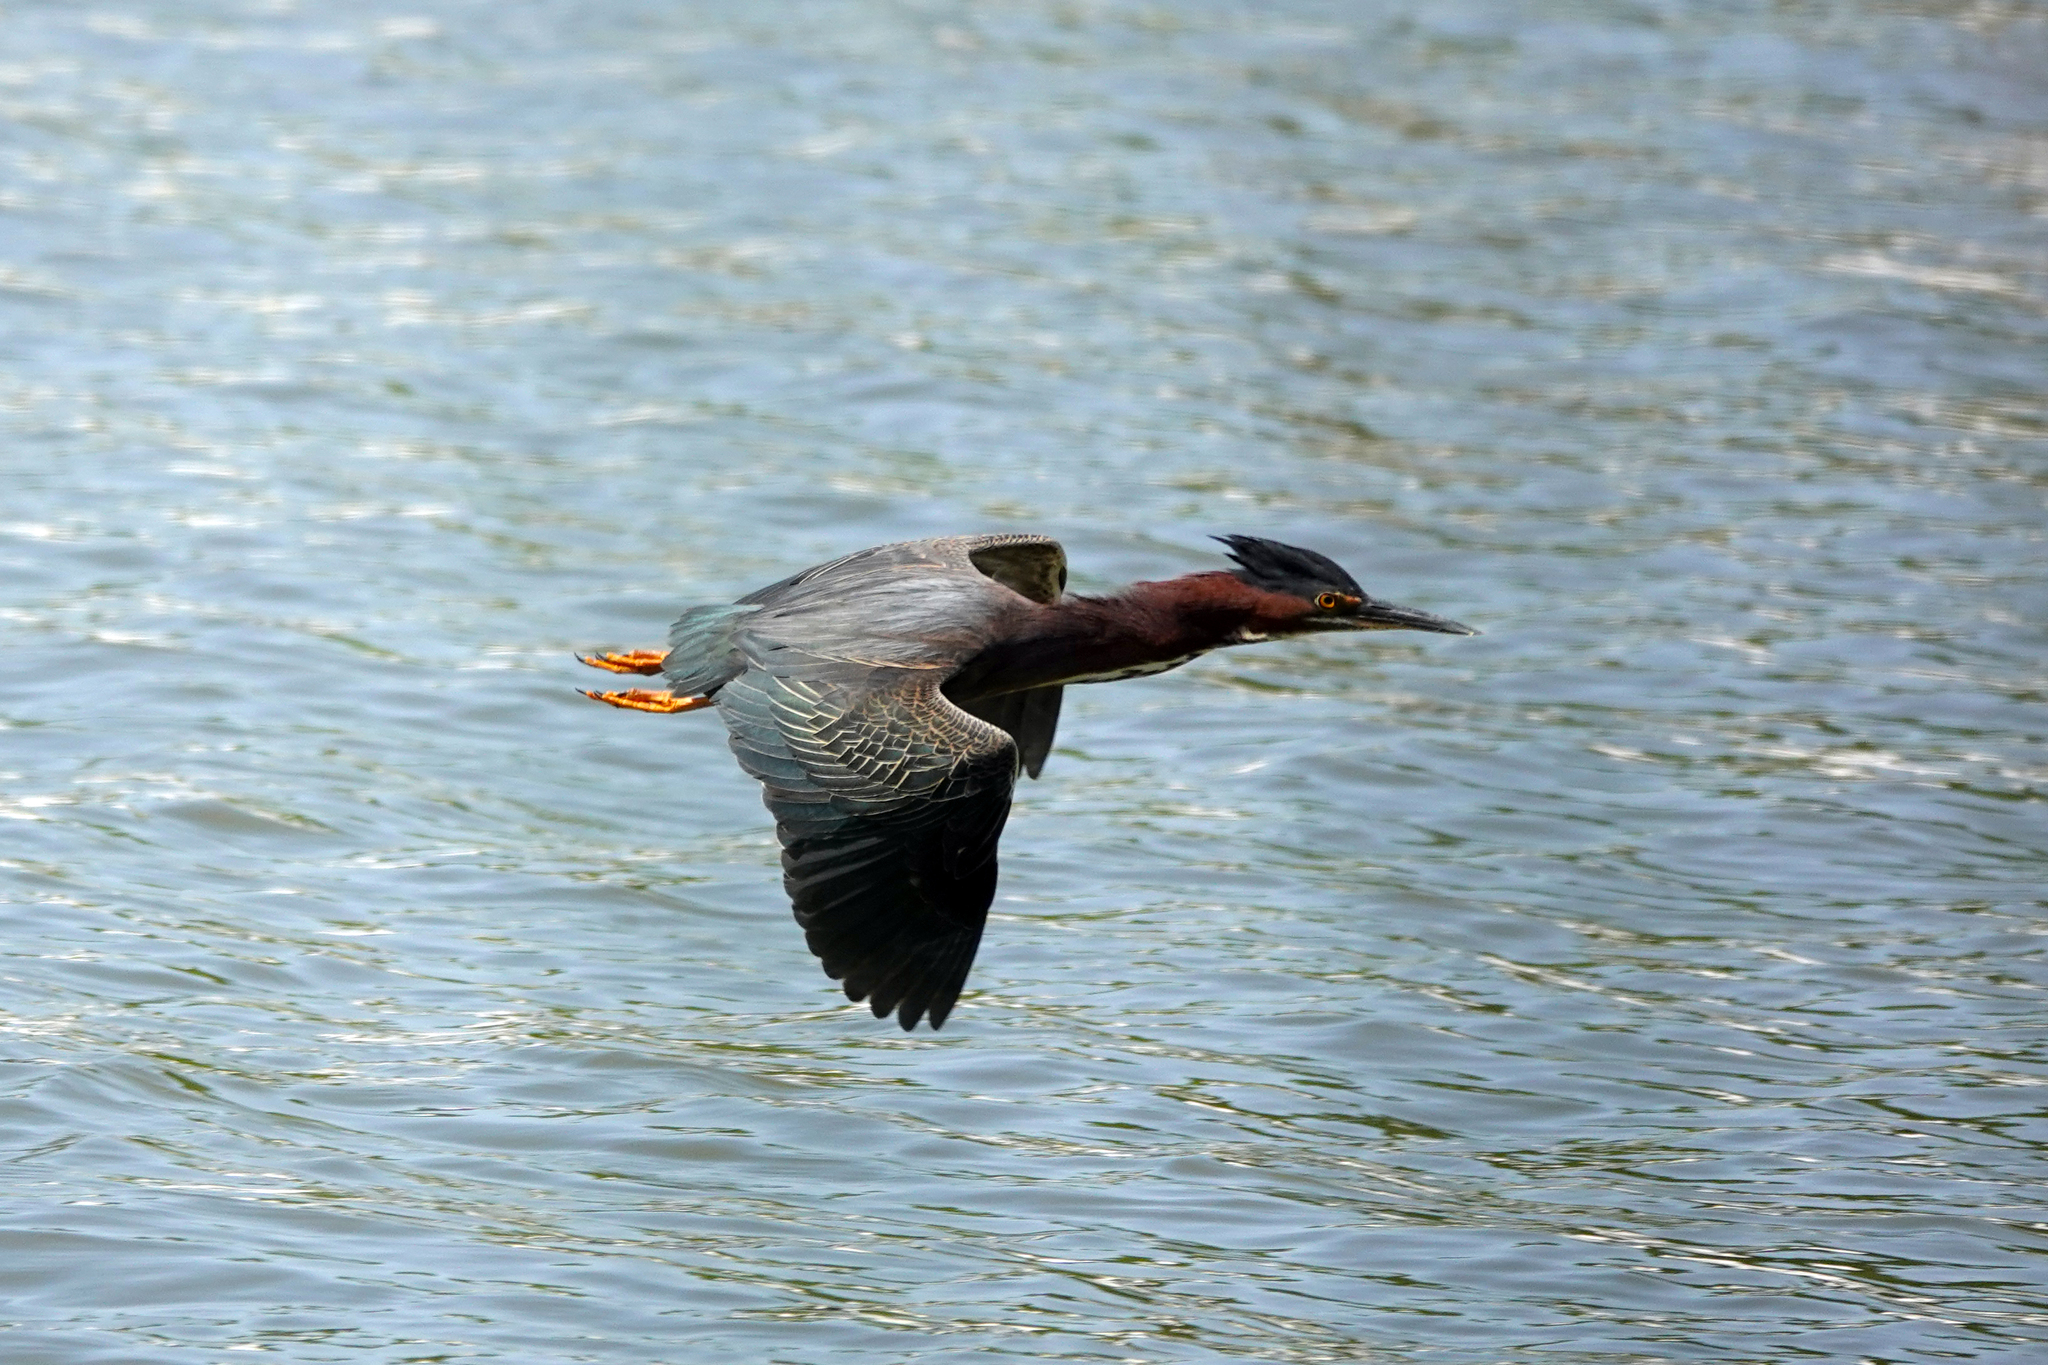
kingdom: Animalia
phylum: Chordata
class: Aves
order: Pelecaniformes
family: Ardeidae
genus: Butorides
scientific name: Butorides virescens
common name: Green heron
